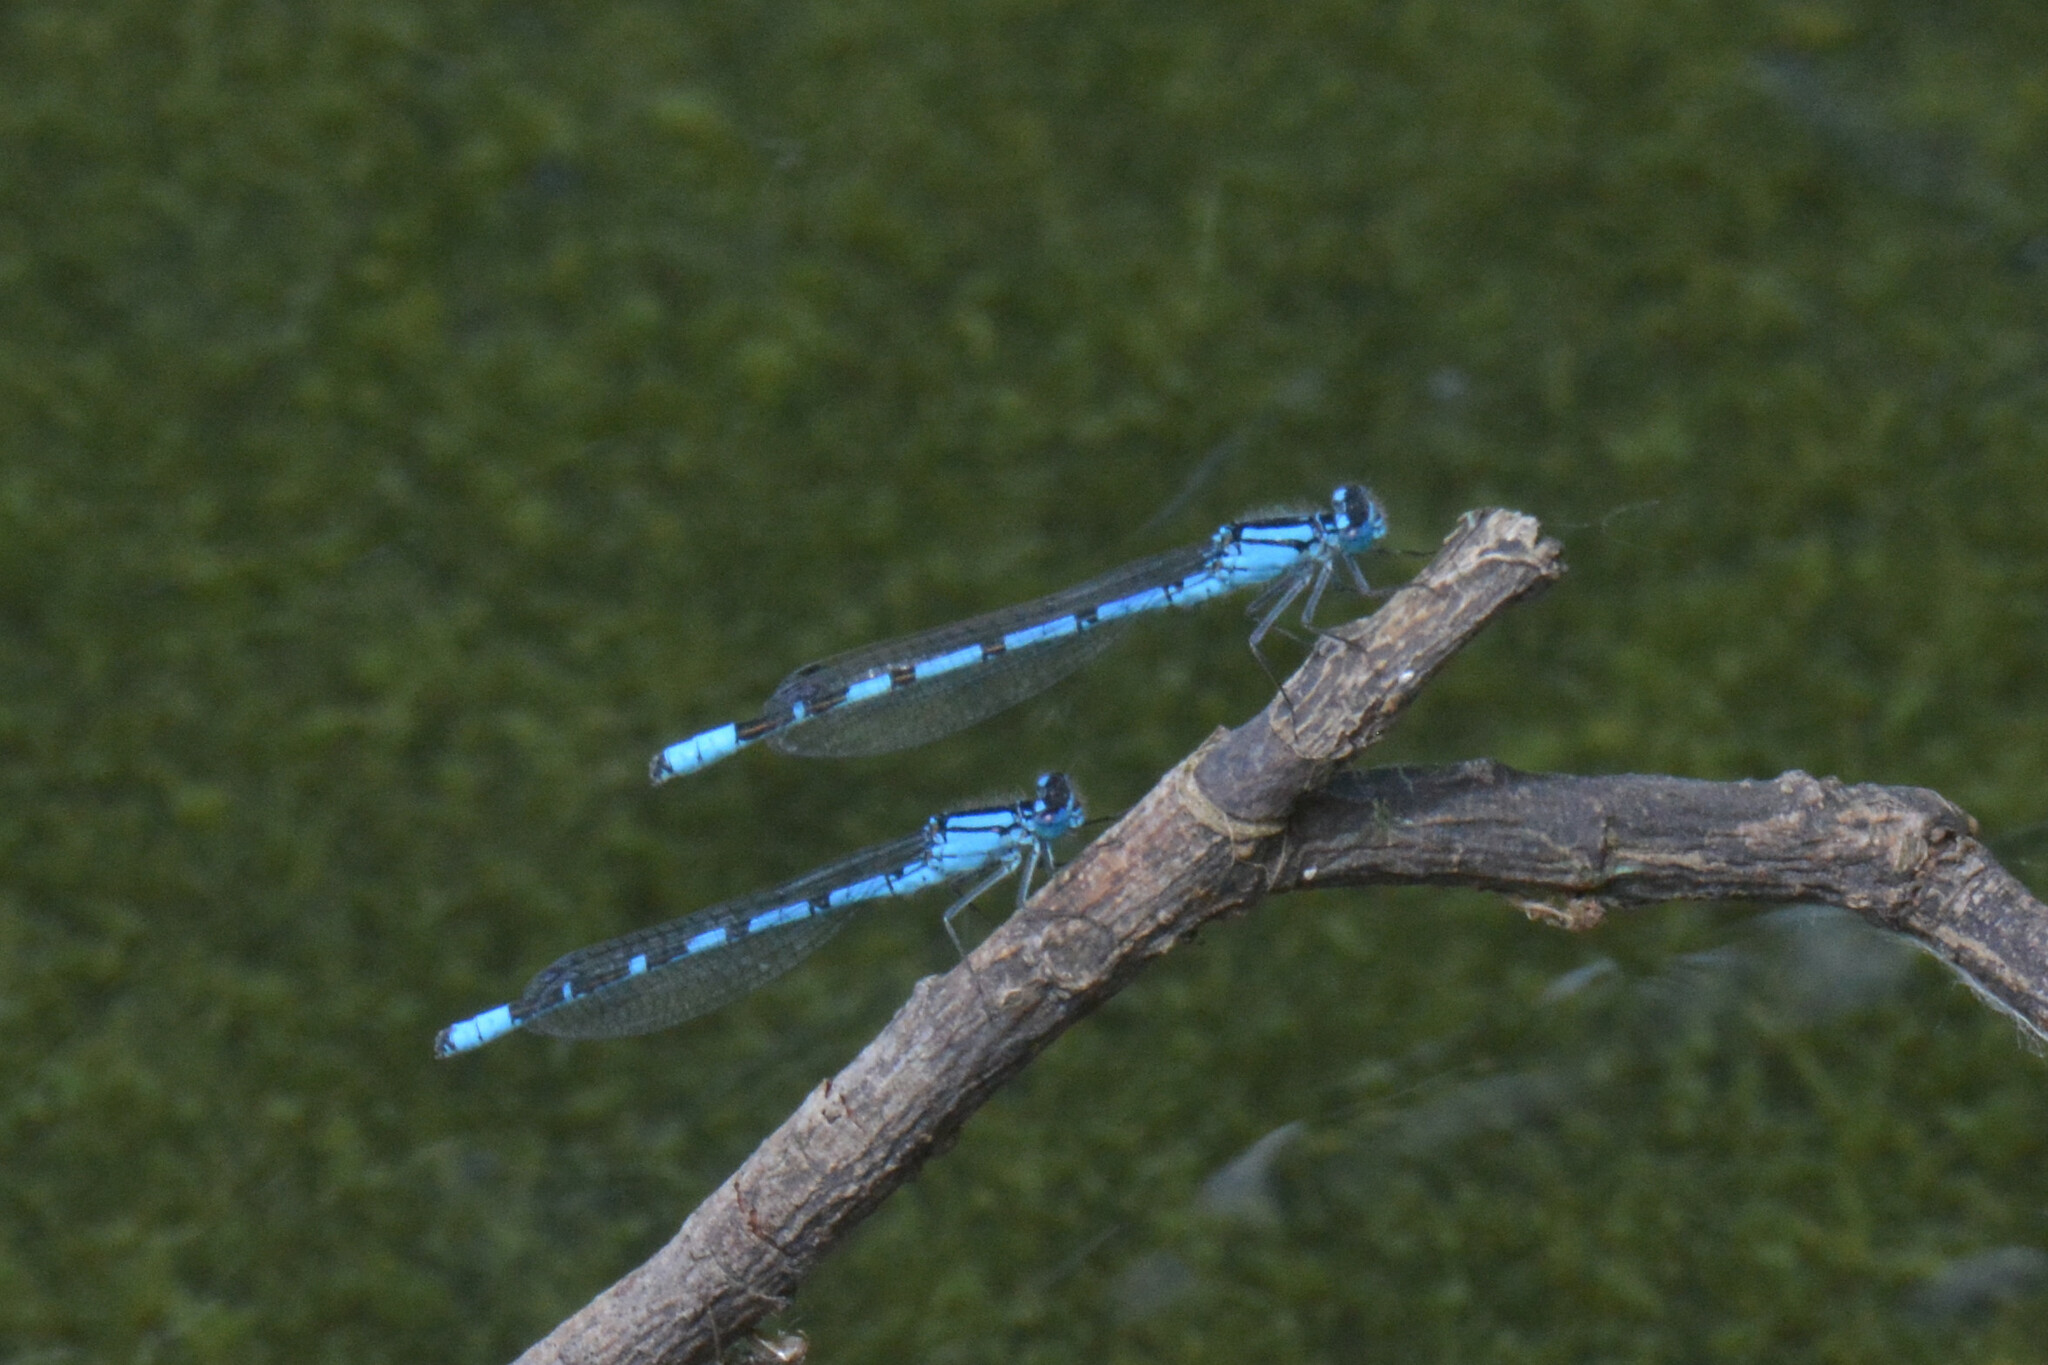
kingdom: Animalia
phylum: Arthropoda
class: Insecta
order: Odonata
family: Coenagrionidae
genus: Enallagma
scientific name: Enallagma cyathigerum
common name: Common blue damselfly
